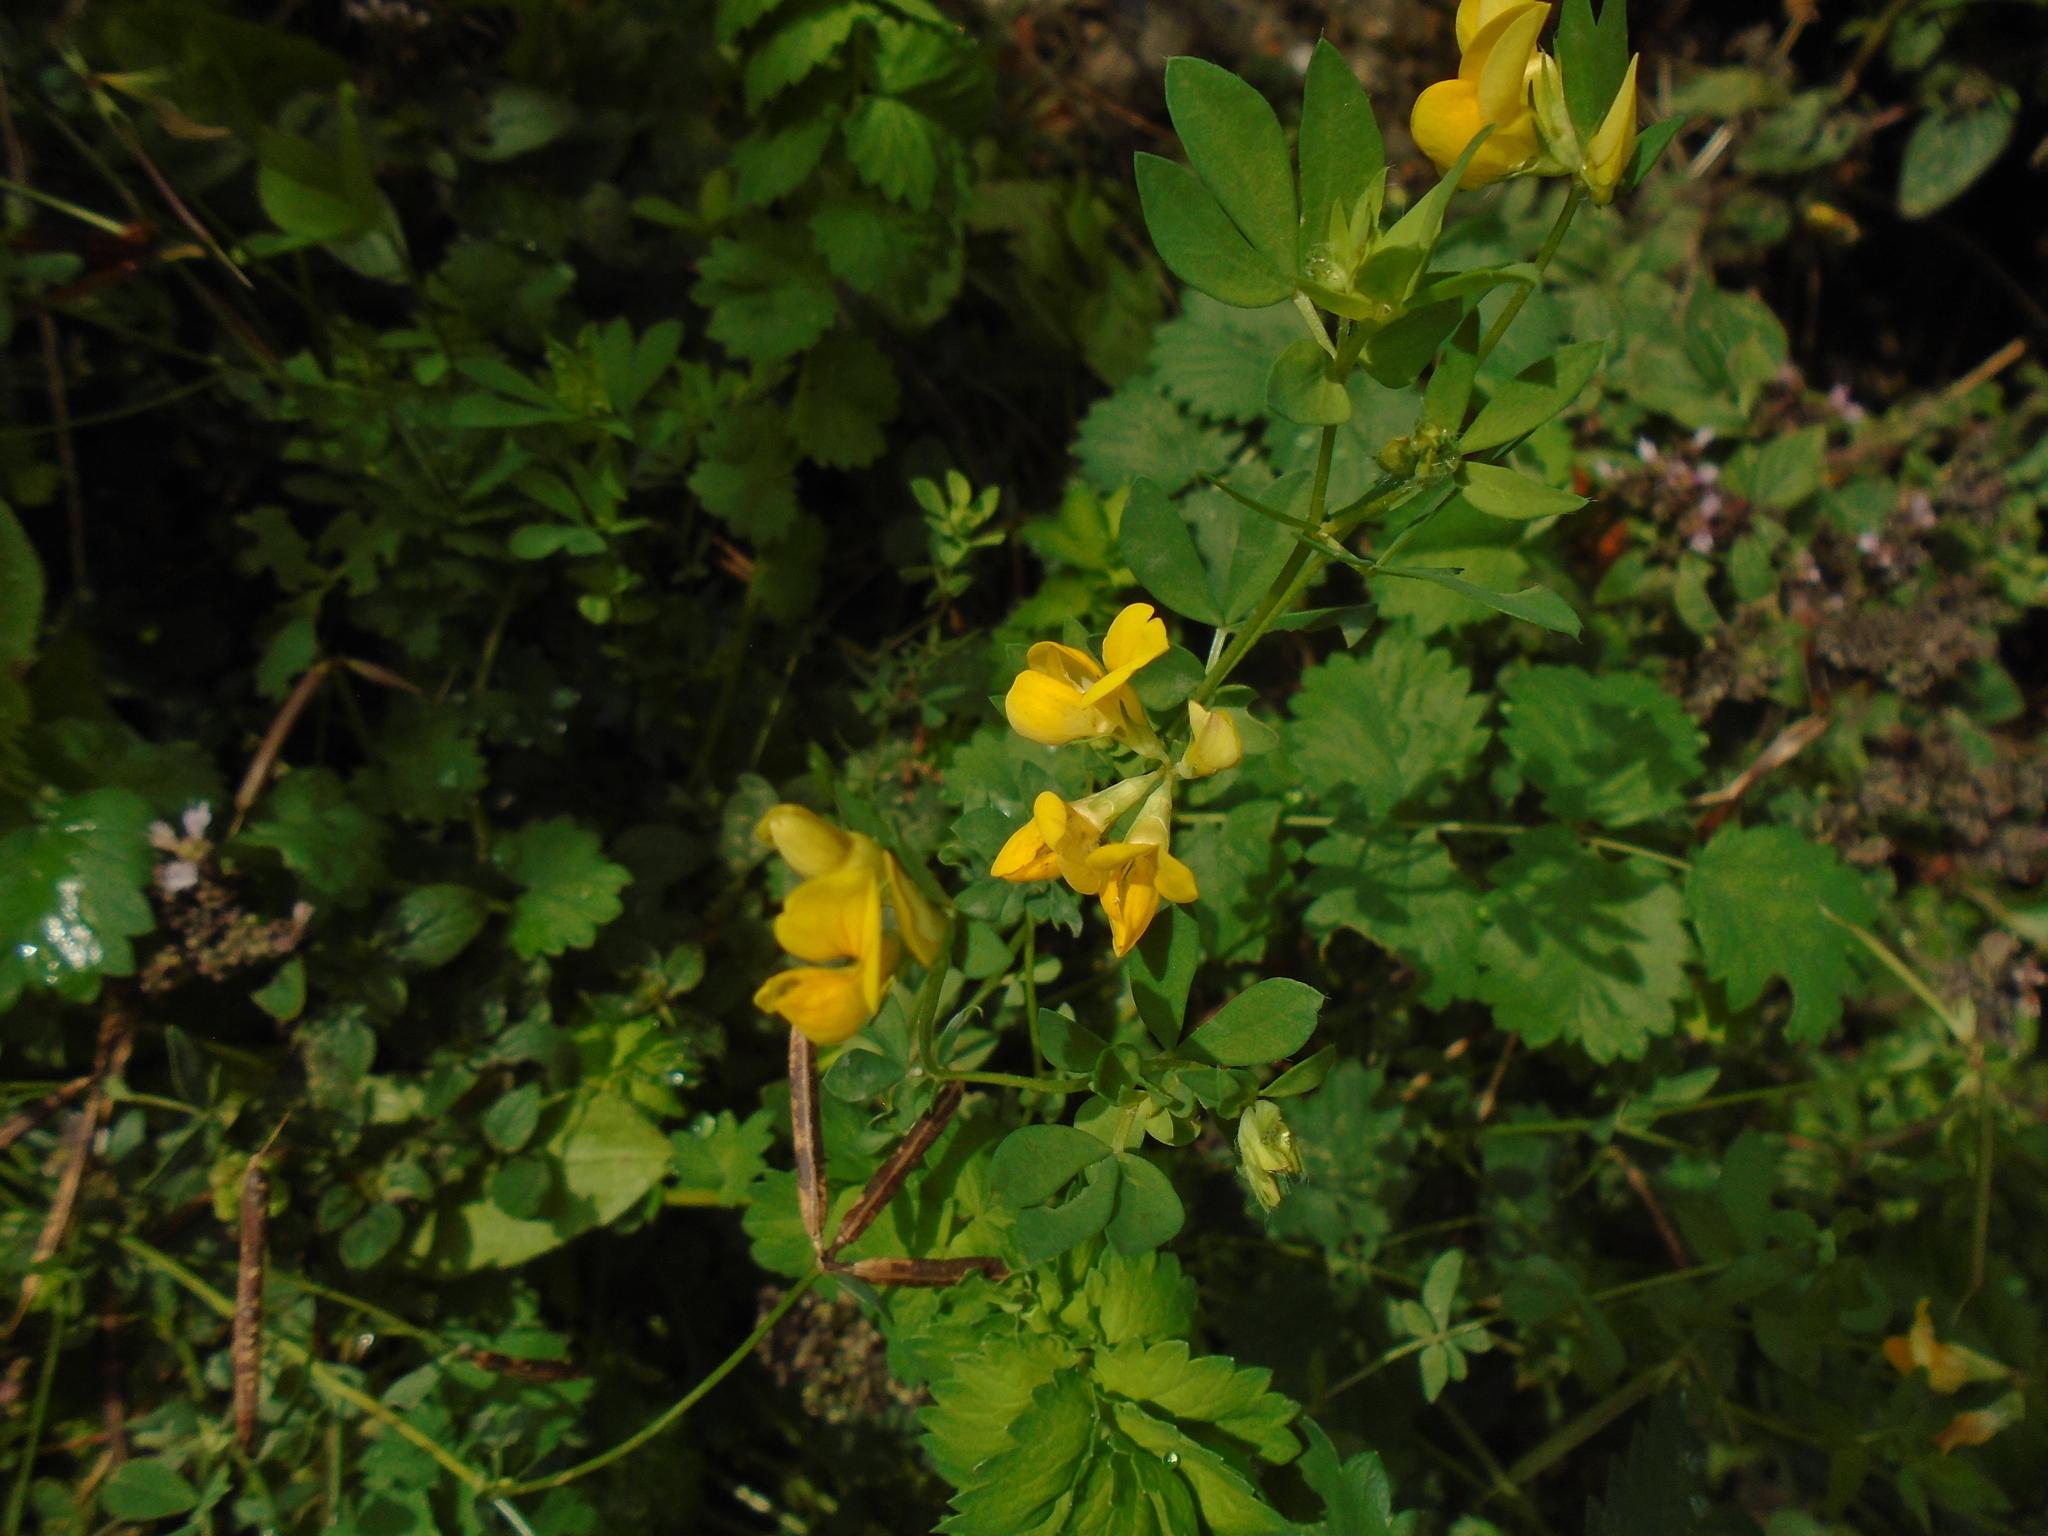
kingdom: Plantae
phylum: Tracheophyta
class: Magnoliopsida
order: Fabales
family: Fabaceae
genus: Lotus
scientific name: Lotus corniculatus
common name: Common bird's-foot-trefoil
